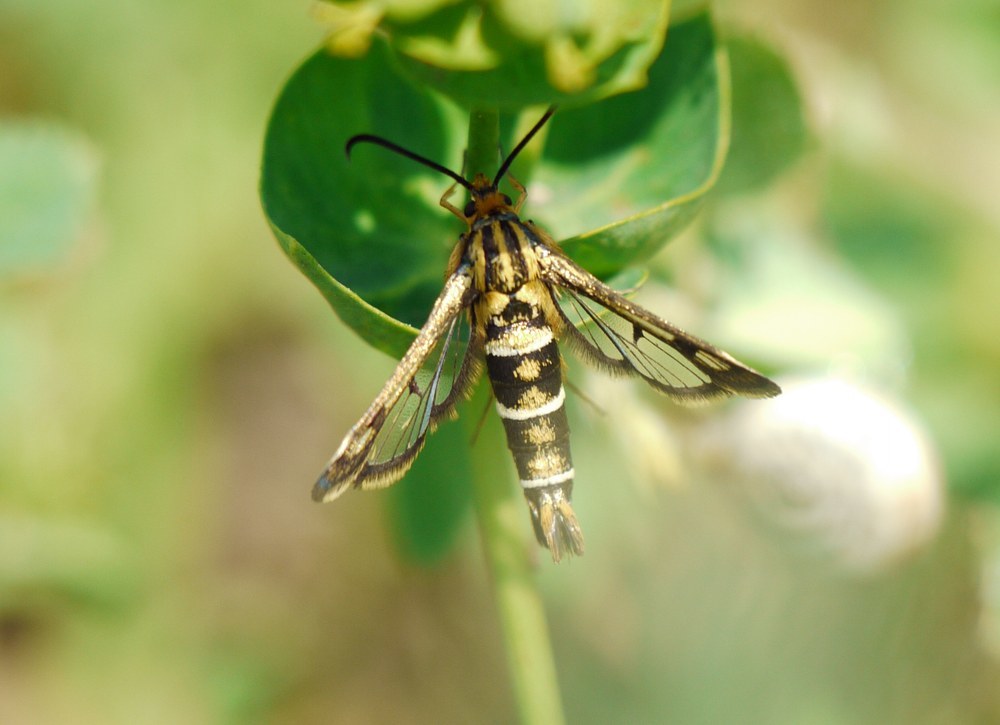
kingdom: Animalia
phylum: Arthropoda
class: Insecta
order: Lepidoptera
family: Sesiidae
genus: Chamaesphecia
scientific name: Chamaesphecia bibioniformis
